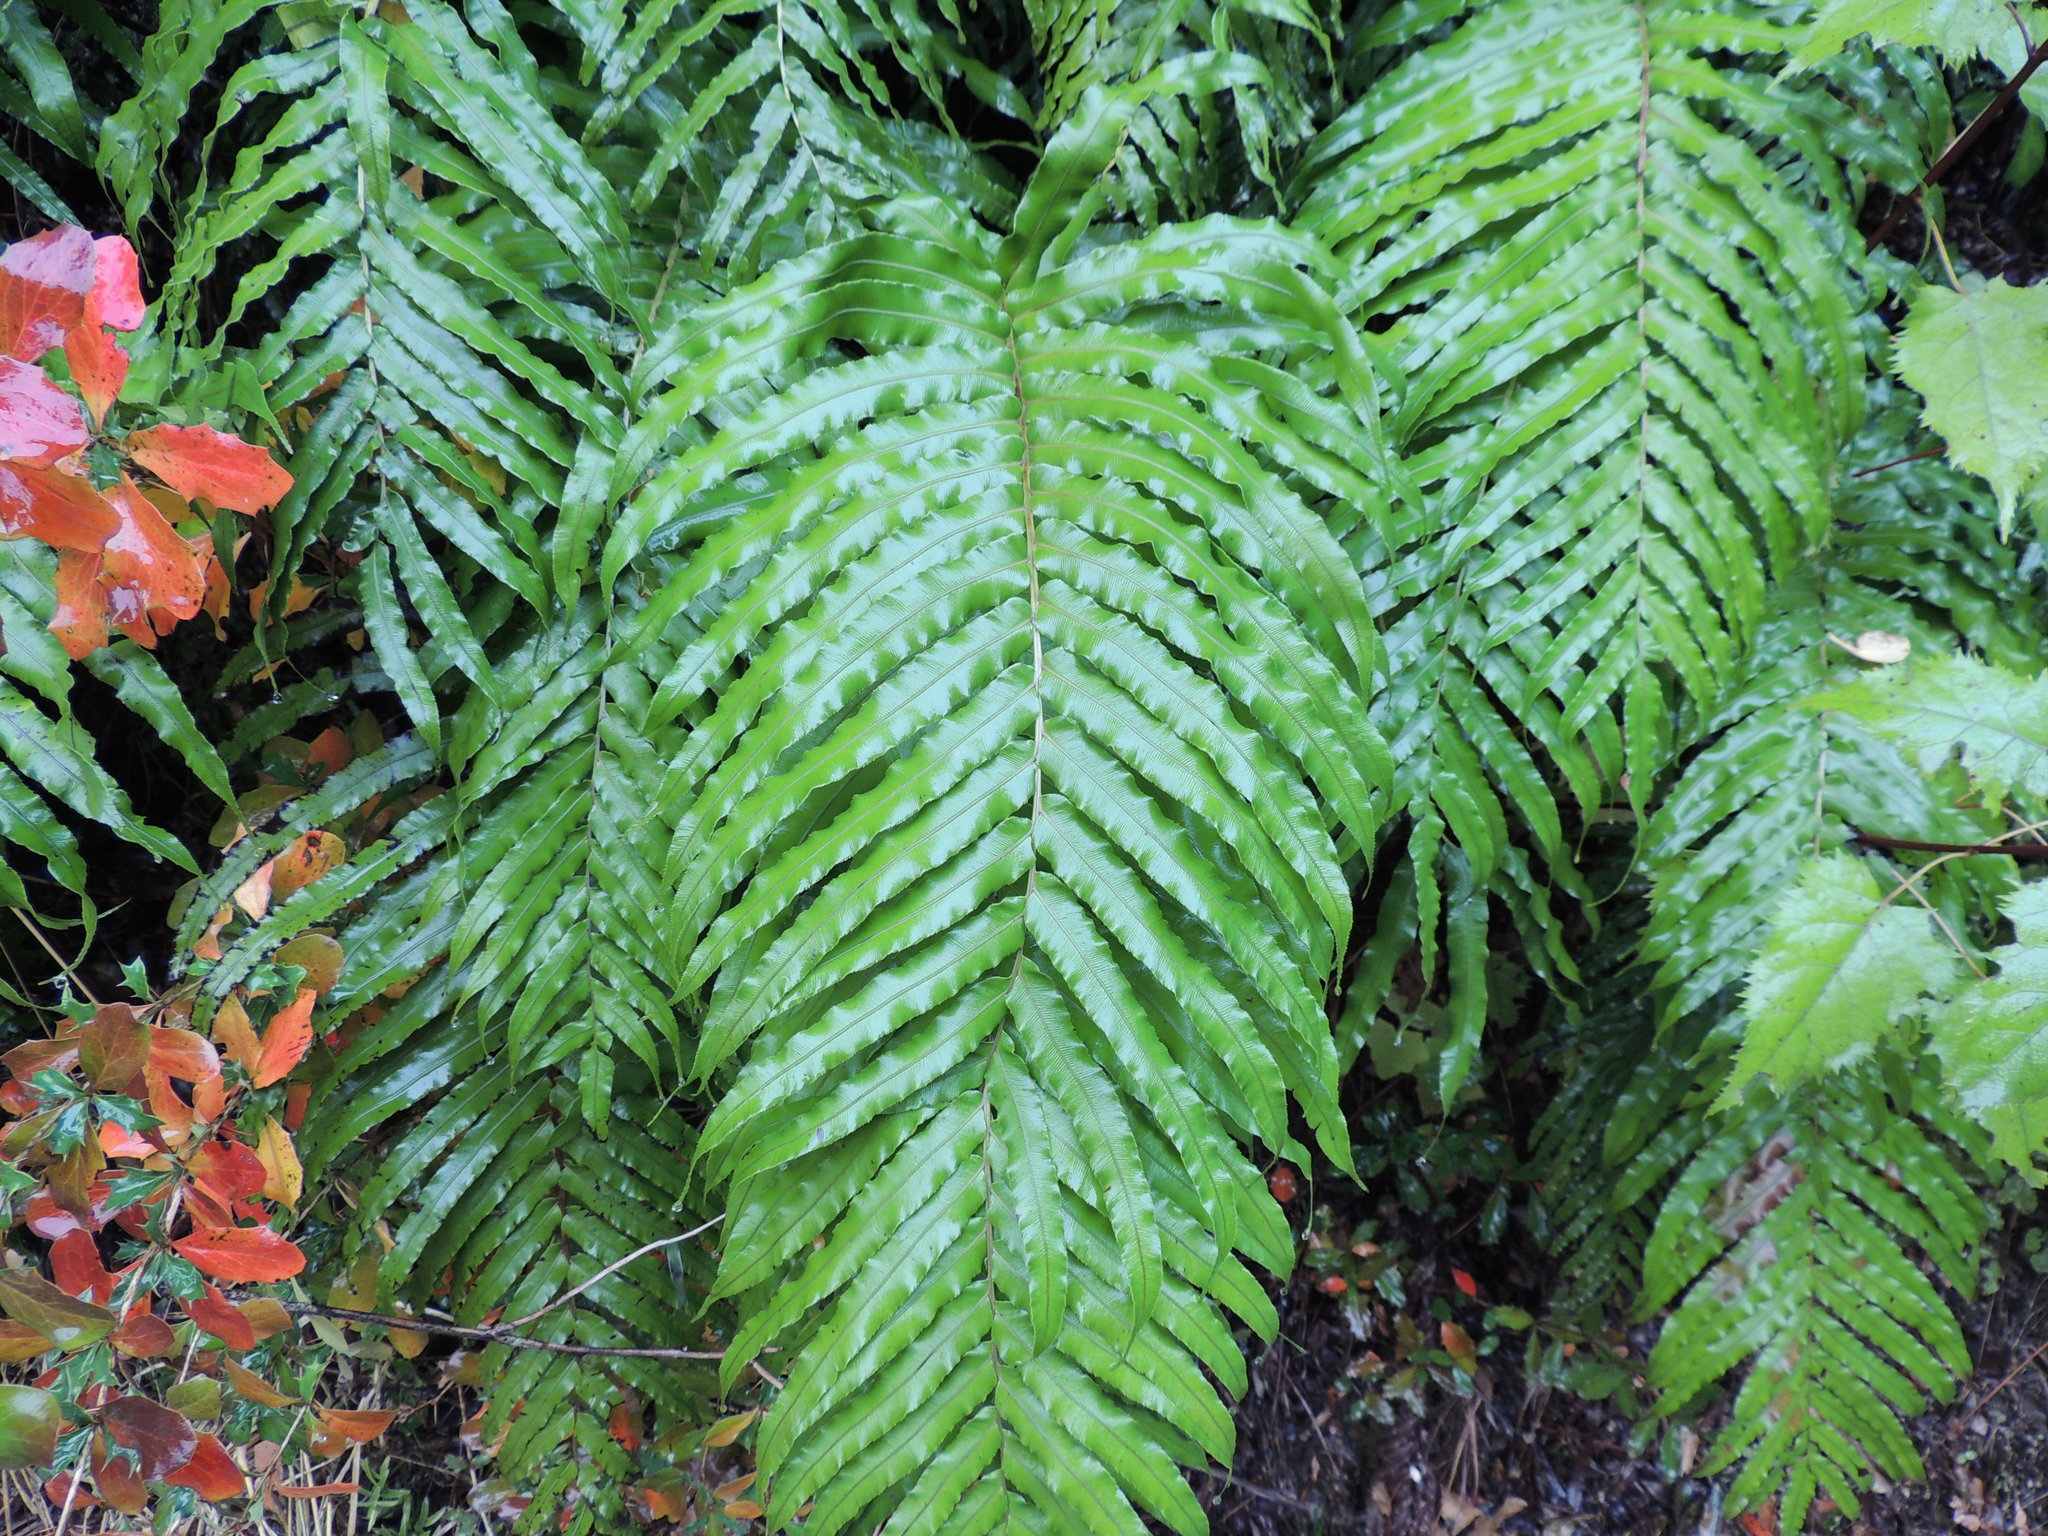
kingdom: Plantae
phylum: Tracheophyta
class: Polypodiopsida
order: Polypodiales
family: Blechnaceae
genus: Parablechnum
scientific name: Parablechnum triangularifolium
